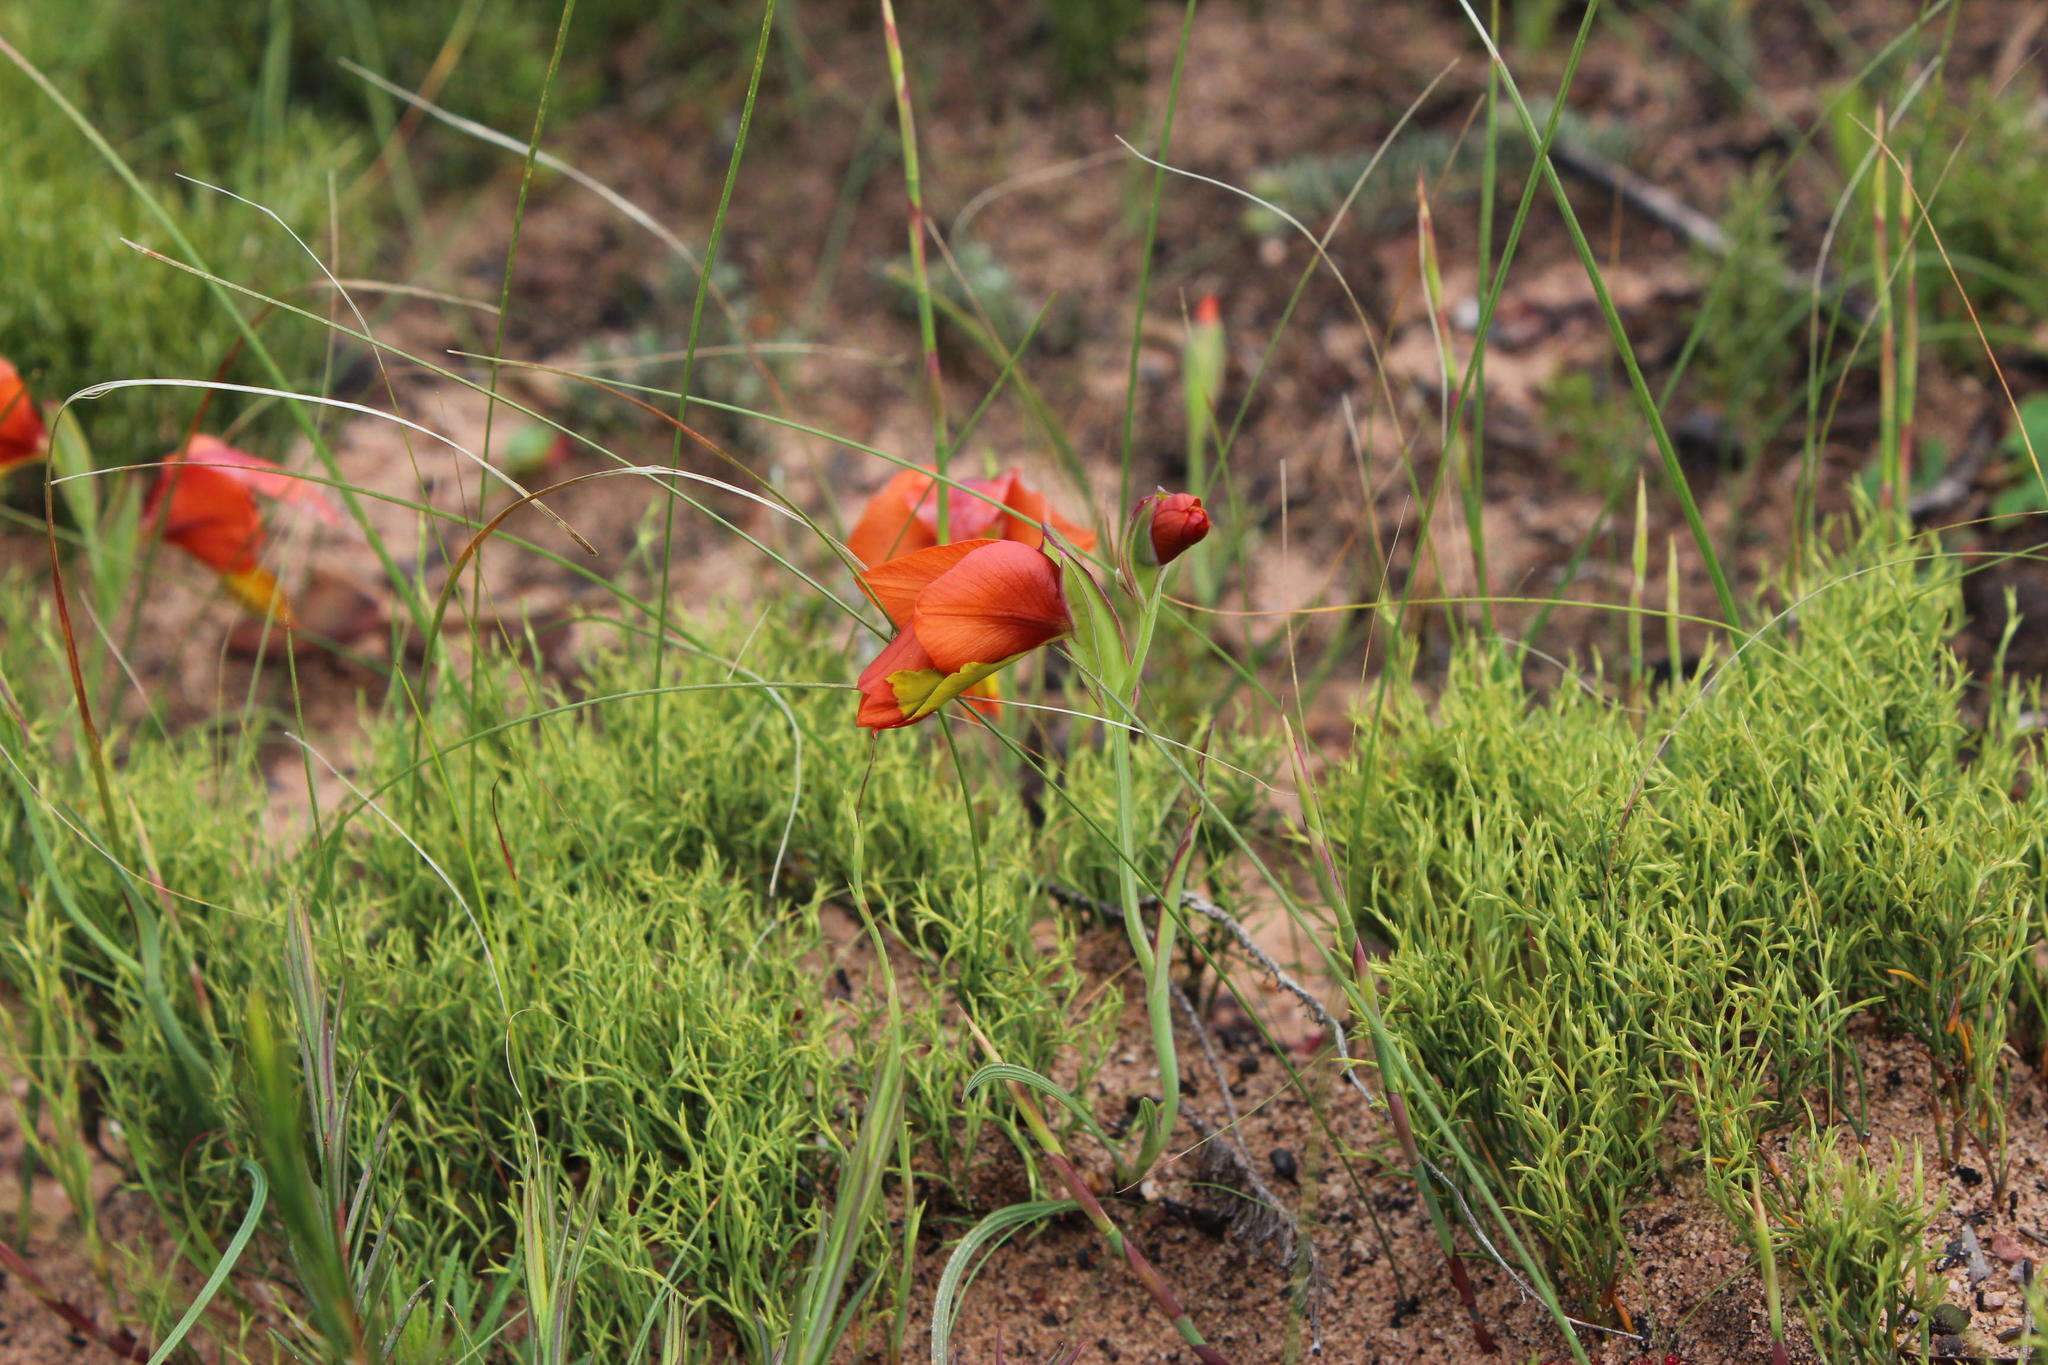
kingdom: Plantae
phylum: Tracheophyta
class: Liliopsida
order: Asparagales
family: Iridaceae
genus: Gladiolus
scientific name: Gladiolus alatus
